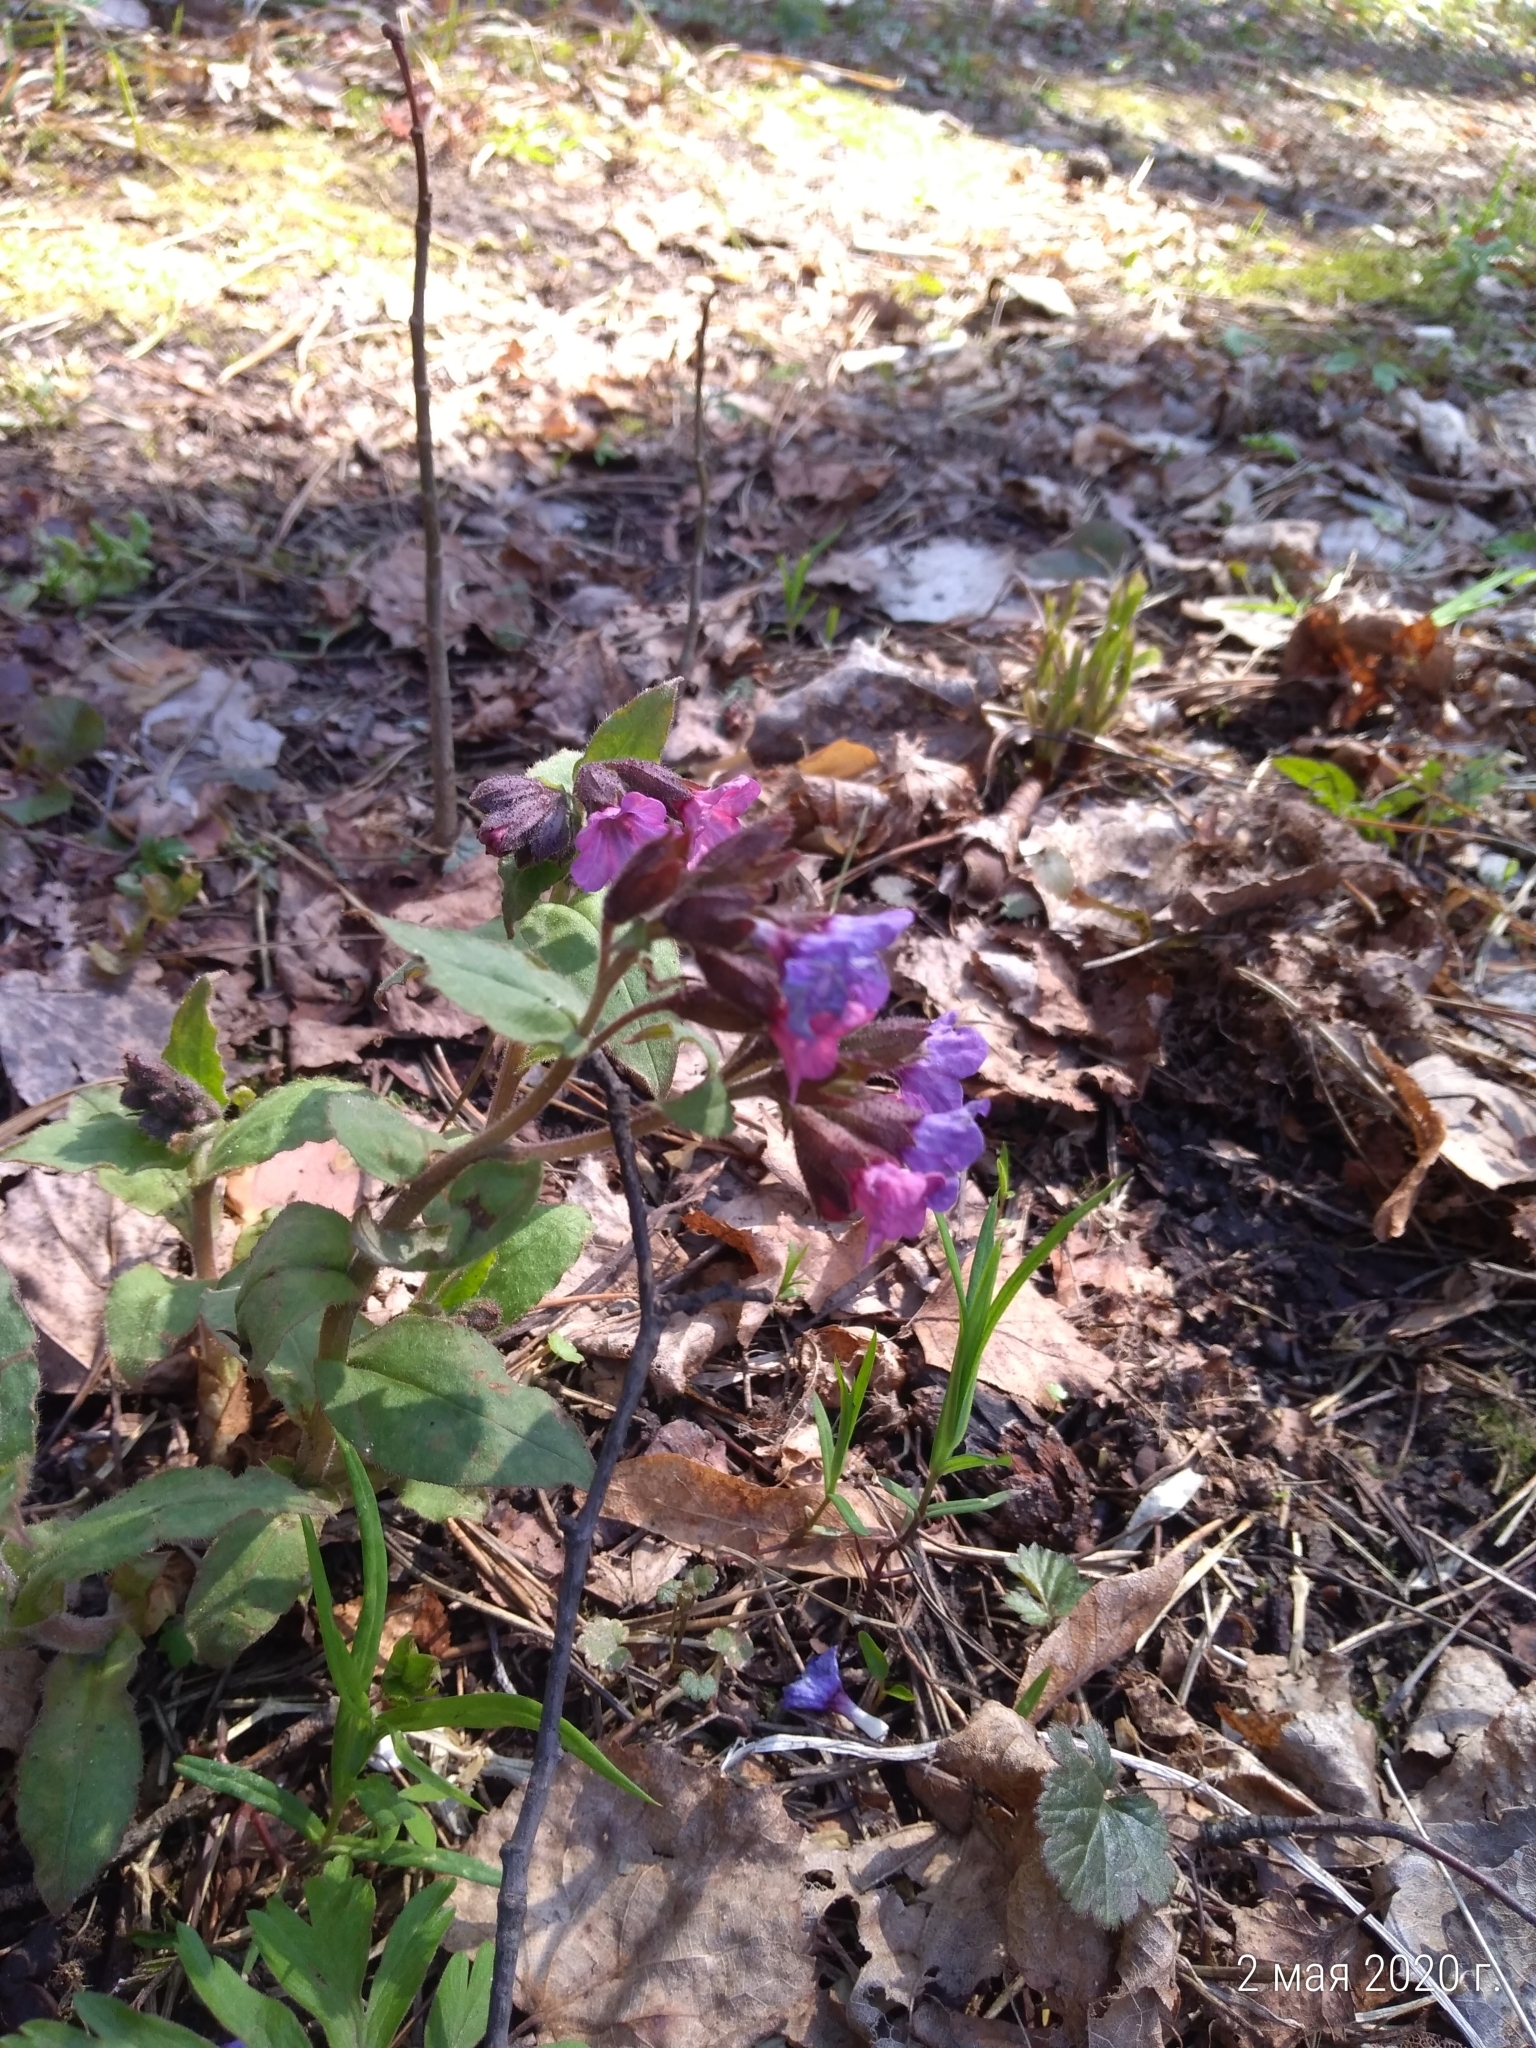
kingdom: Plantae
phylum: Tracheophyta
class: Magnoliopsida
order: Boraginales
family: Boraginaceae
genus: Pulmonaria
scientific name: Pulmonaria obscura
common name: Suffolk lungwort
